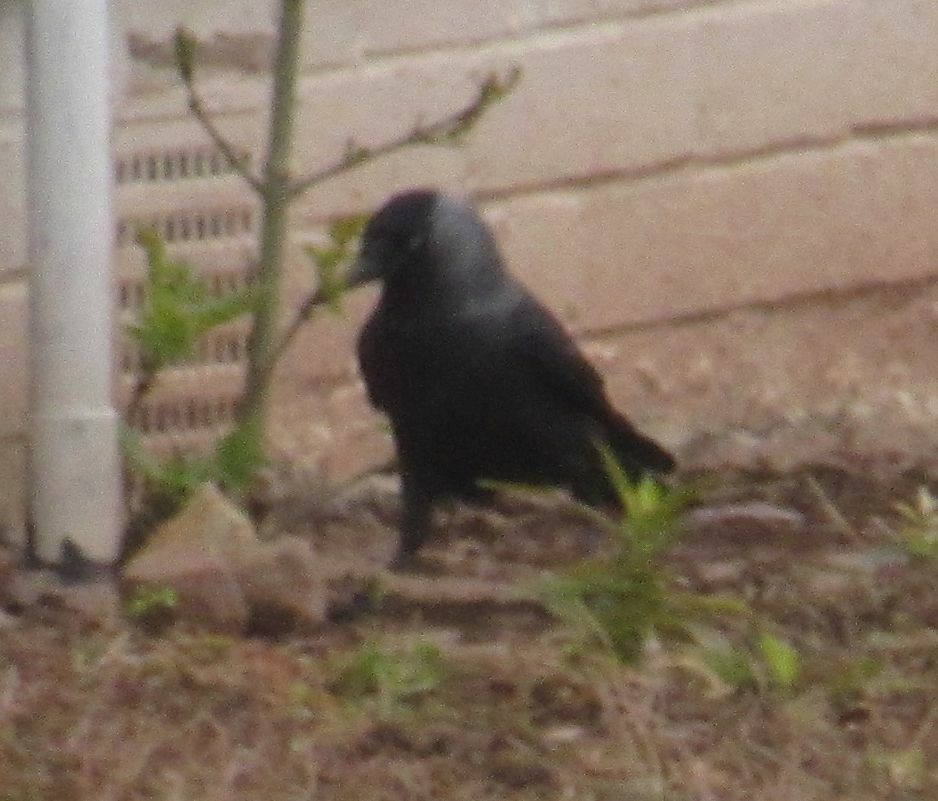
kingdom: Animalia
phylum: Chordata
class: Aves
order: Passeriformes
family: Corvidae
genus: Coloeus
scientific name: Coloeus monedula
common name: Western jackdaw
